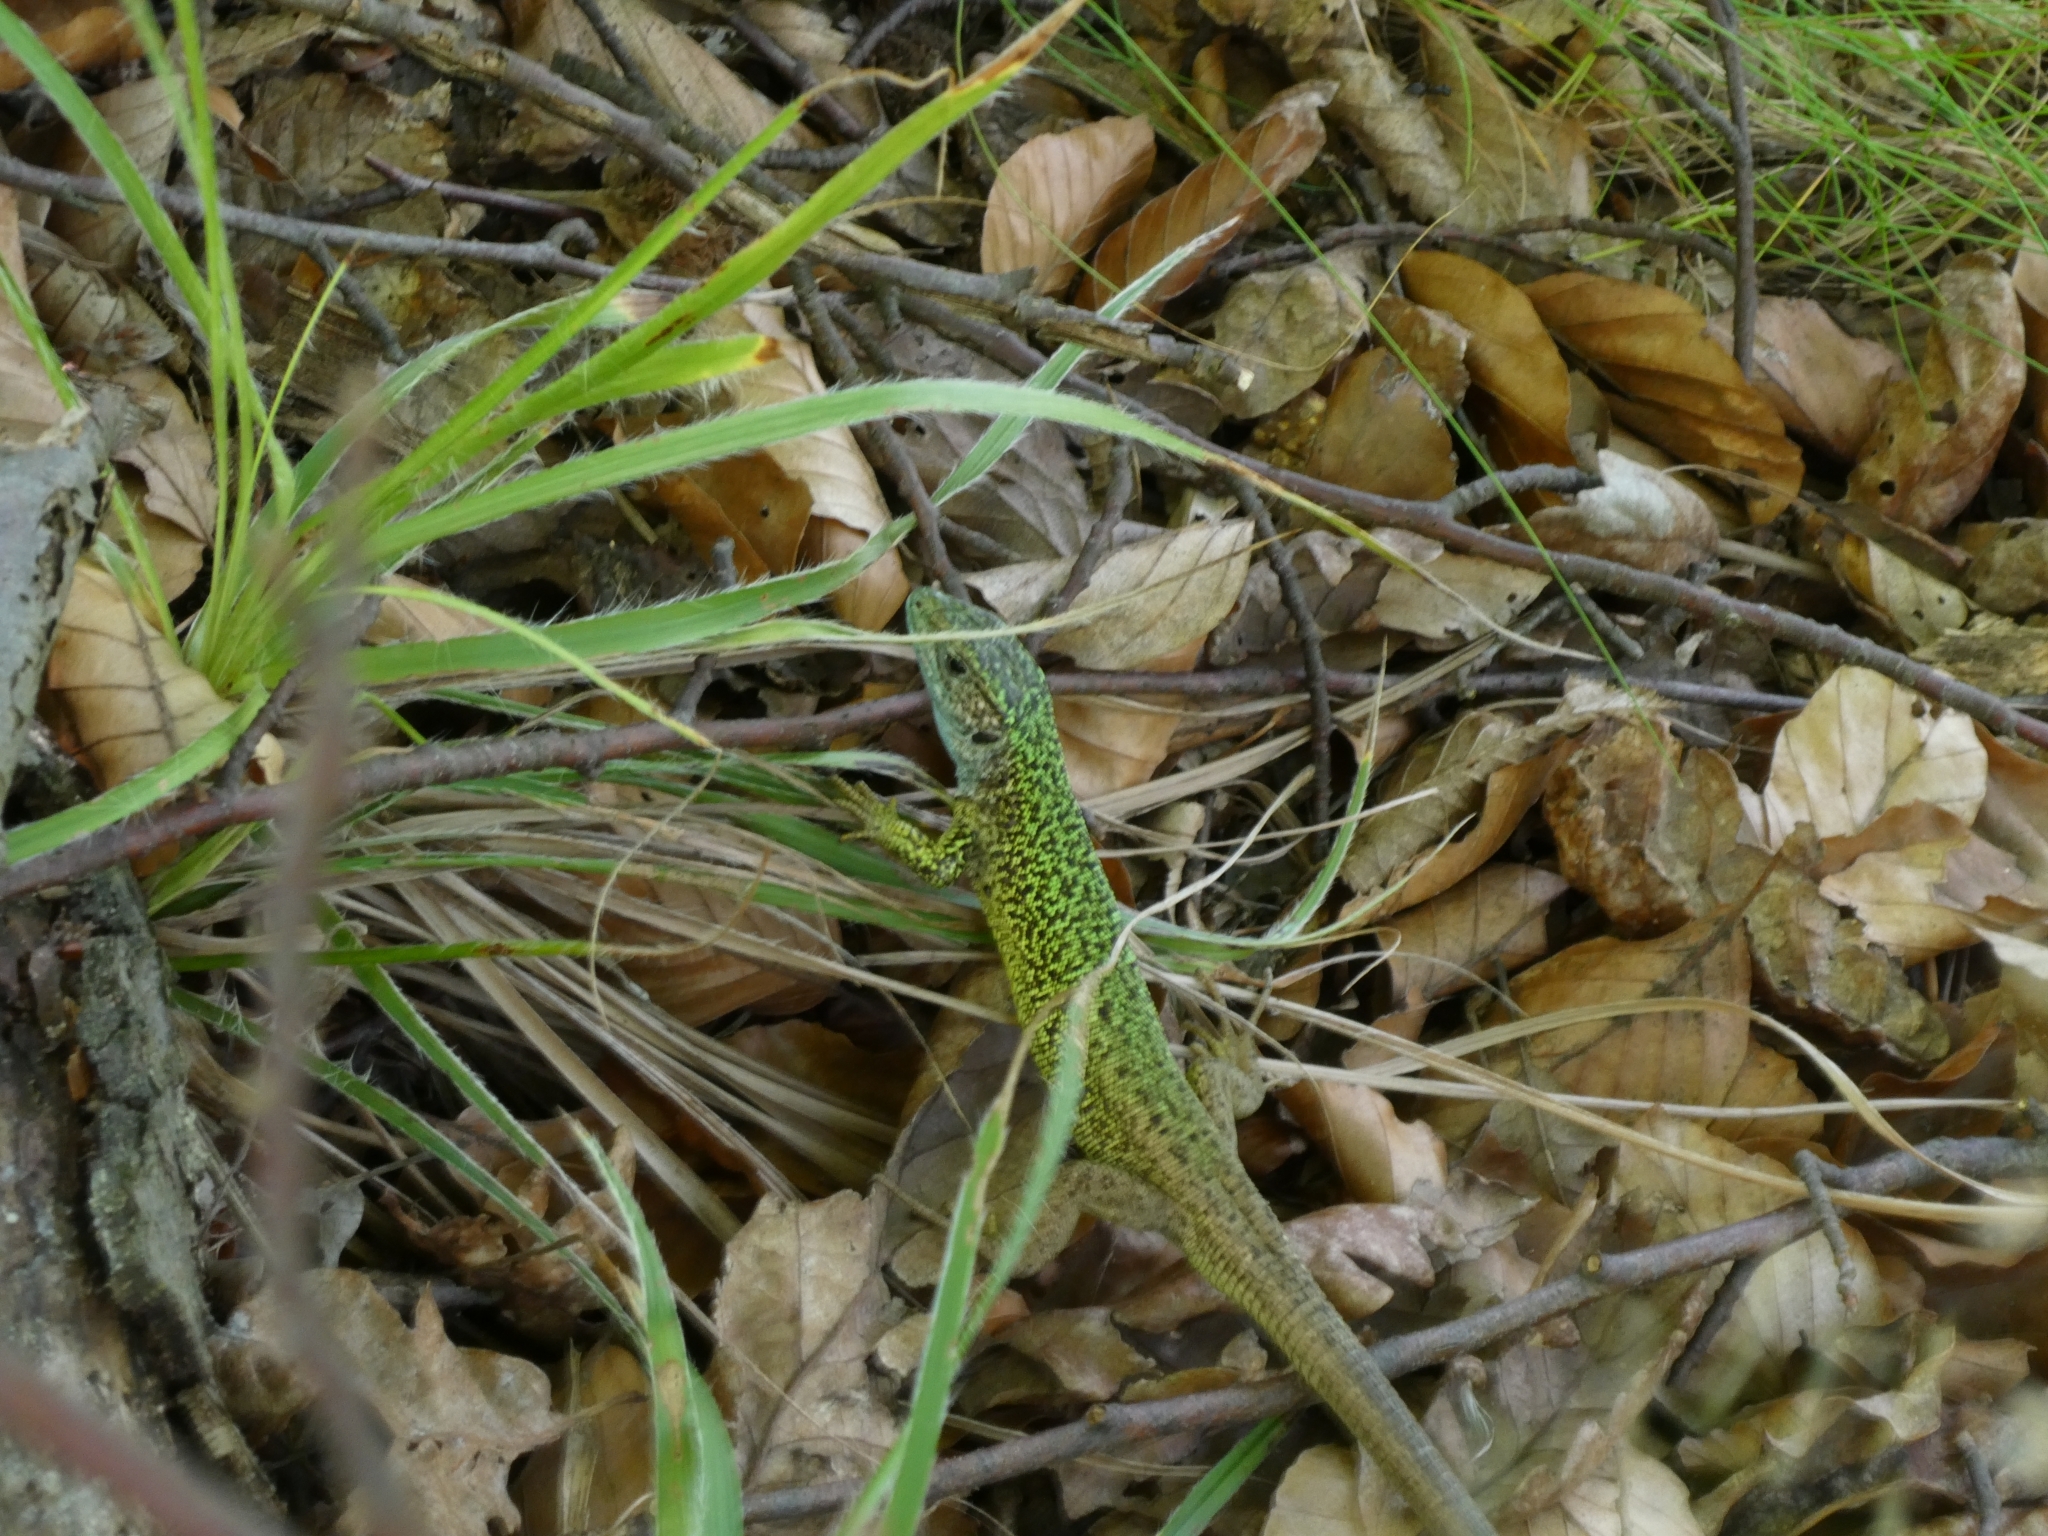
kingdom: Animalia
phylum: Chordata
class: Squamata
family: Lacertidae
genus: Lacerta
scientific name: Lacerta viridis
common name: European green lizard
